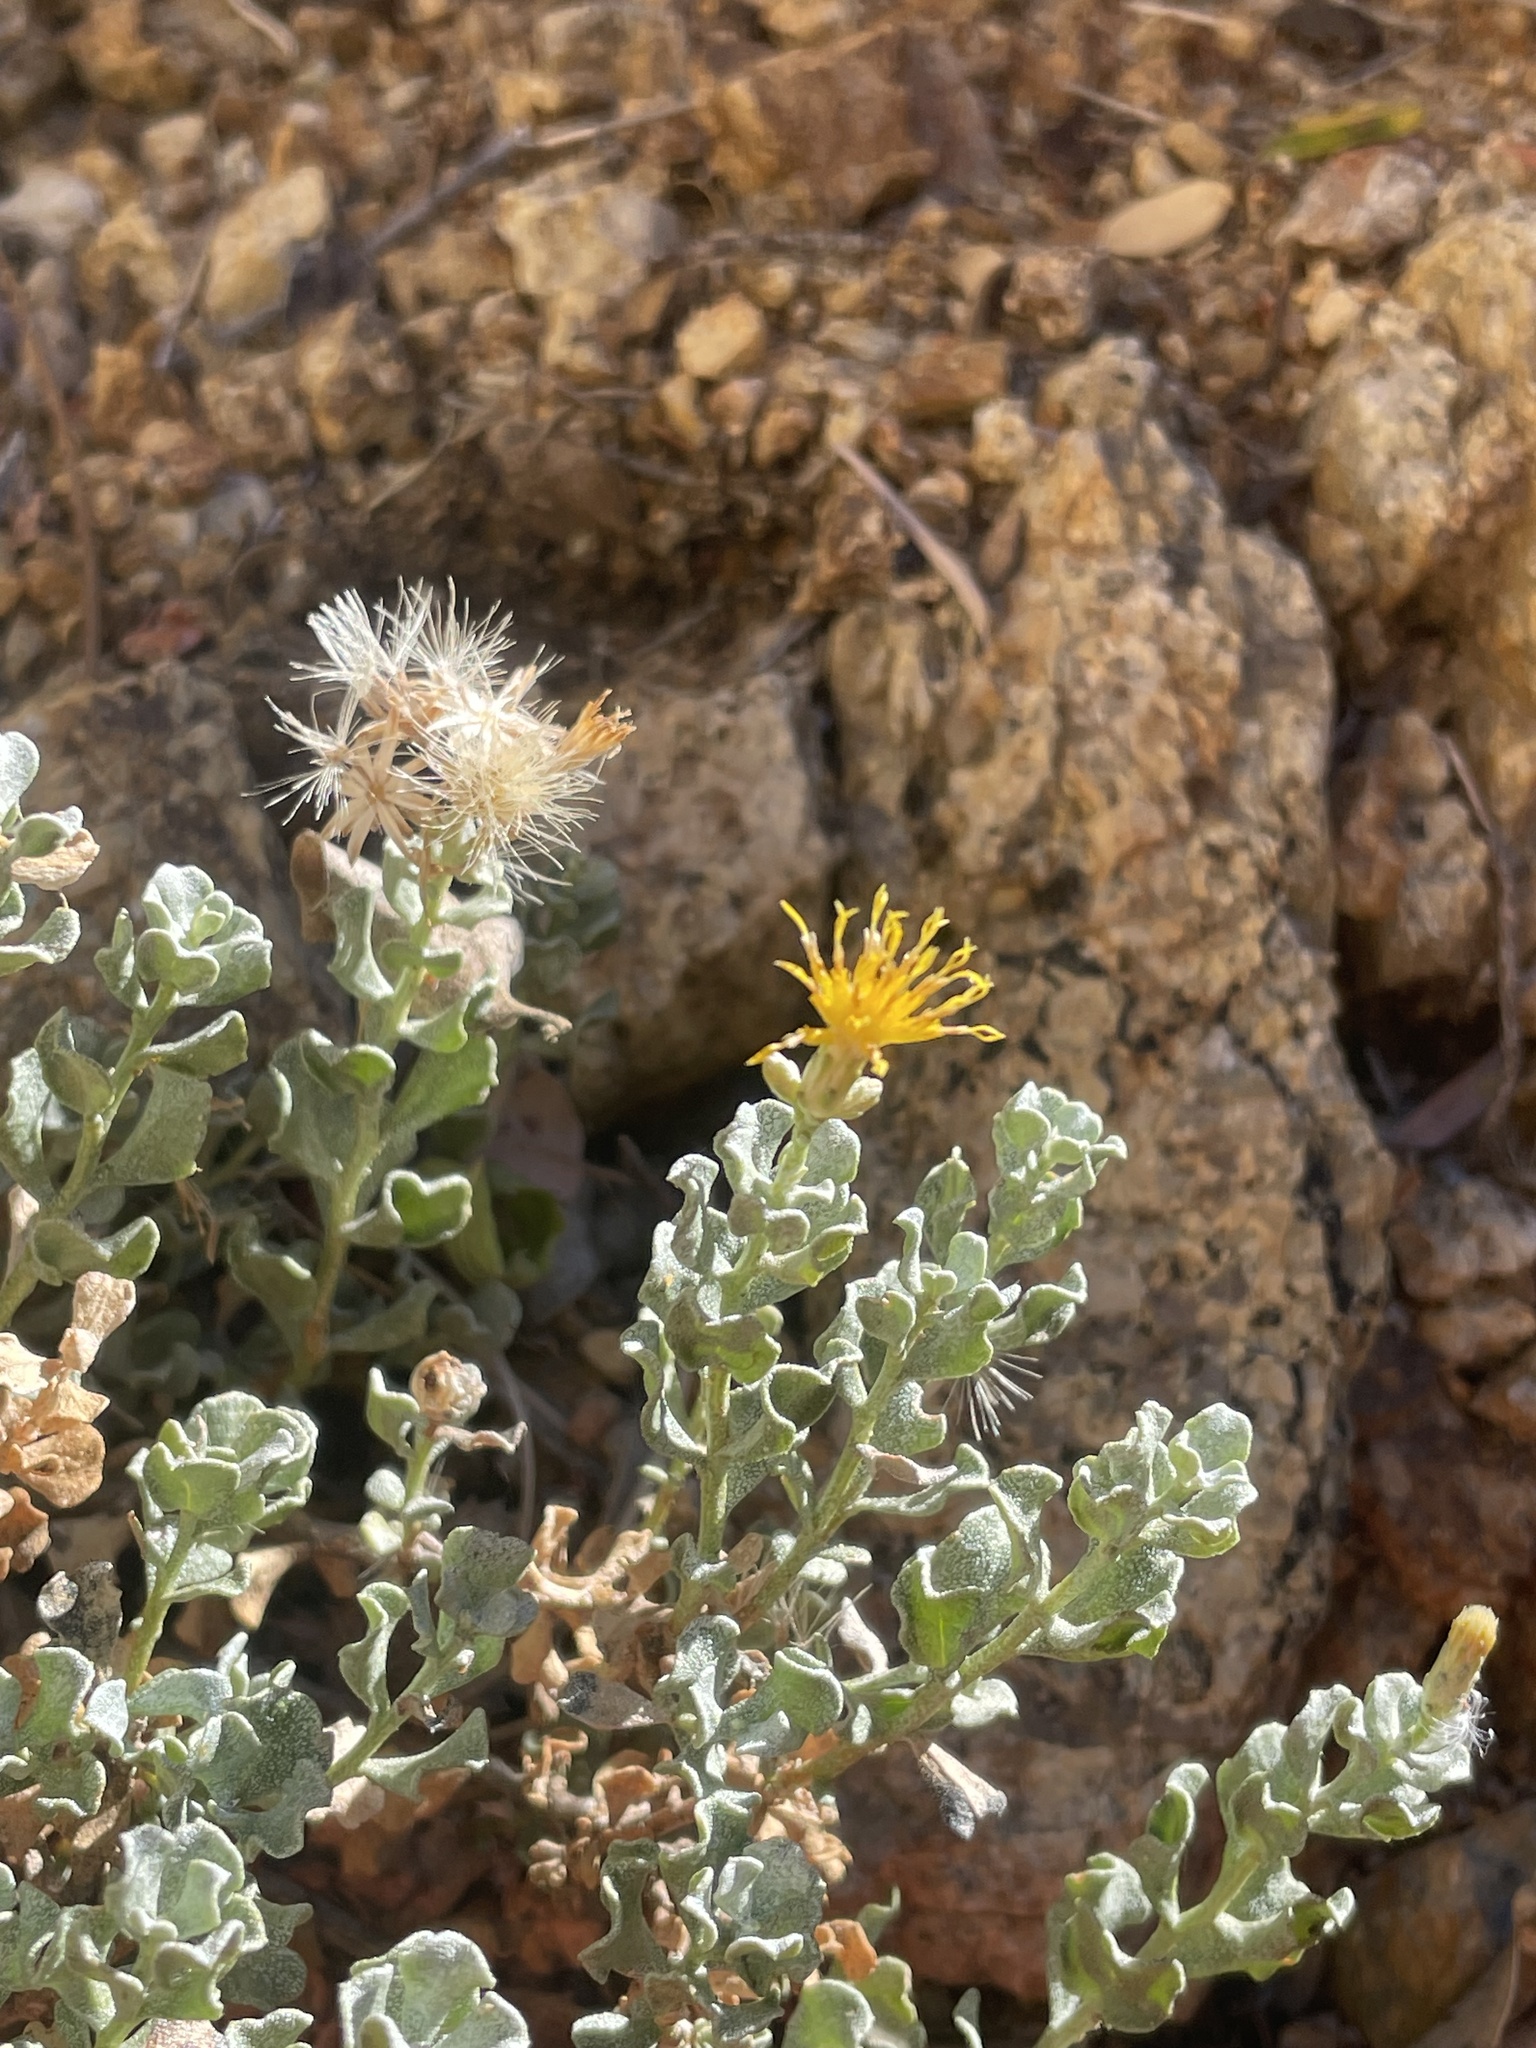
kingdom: Plantae
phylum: Tracheophyta
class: Magnoliopsida
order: Asterales
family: Asteraceae
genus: Ericameria
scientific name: Ericameria cuneata
